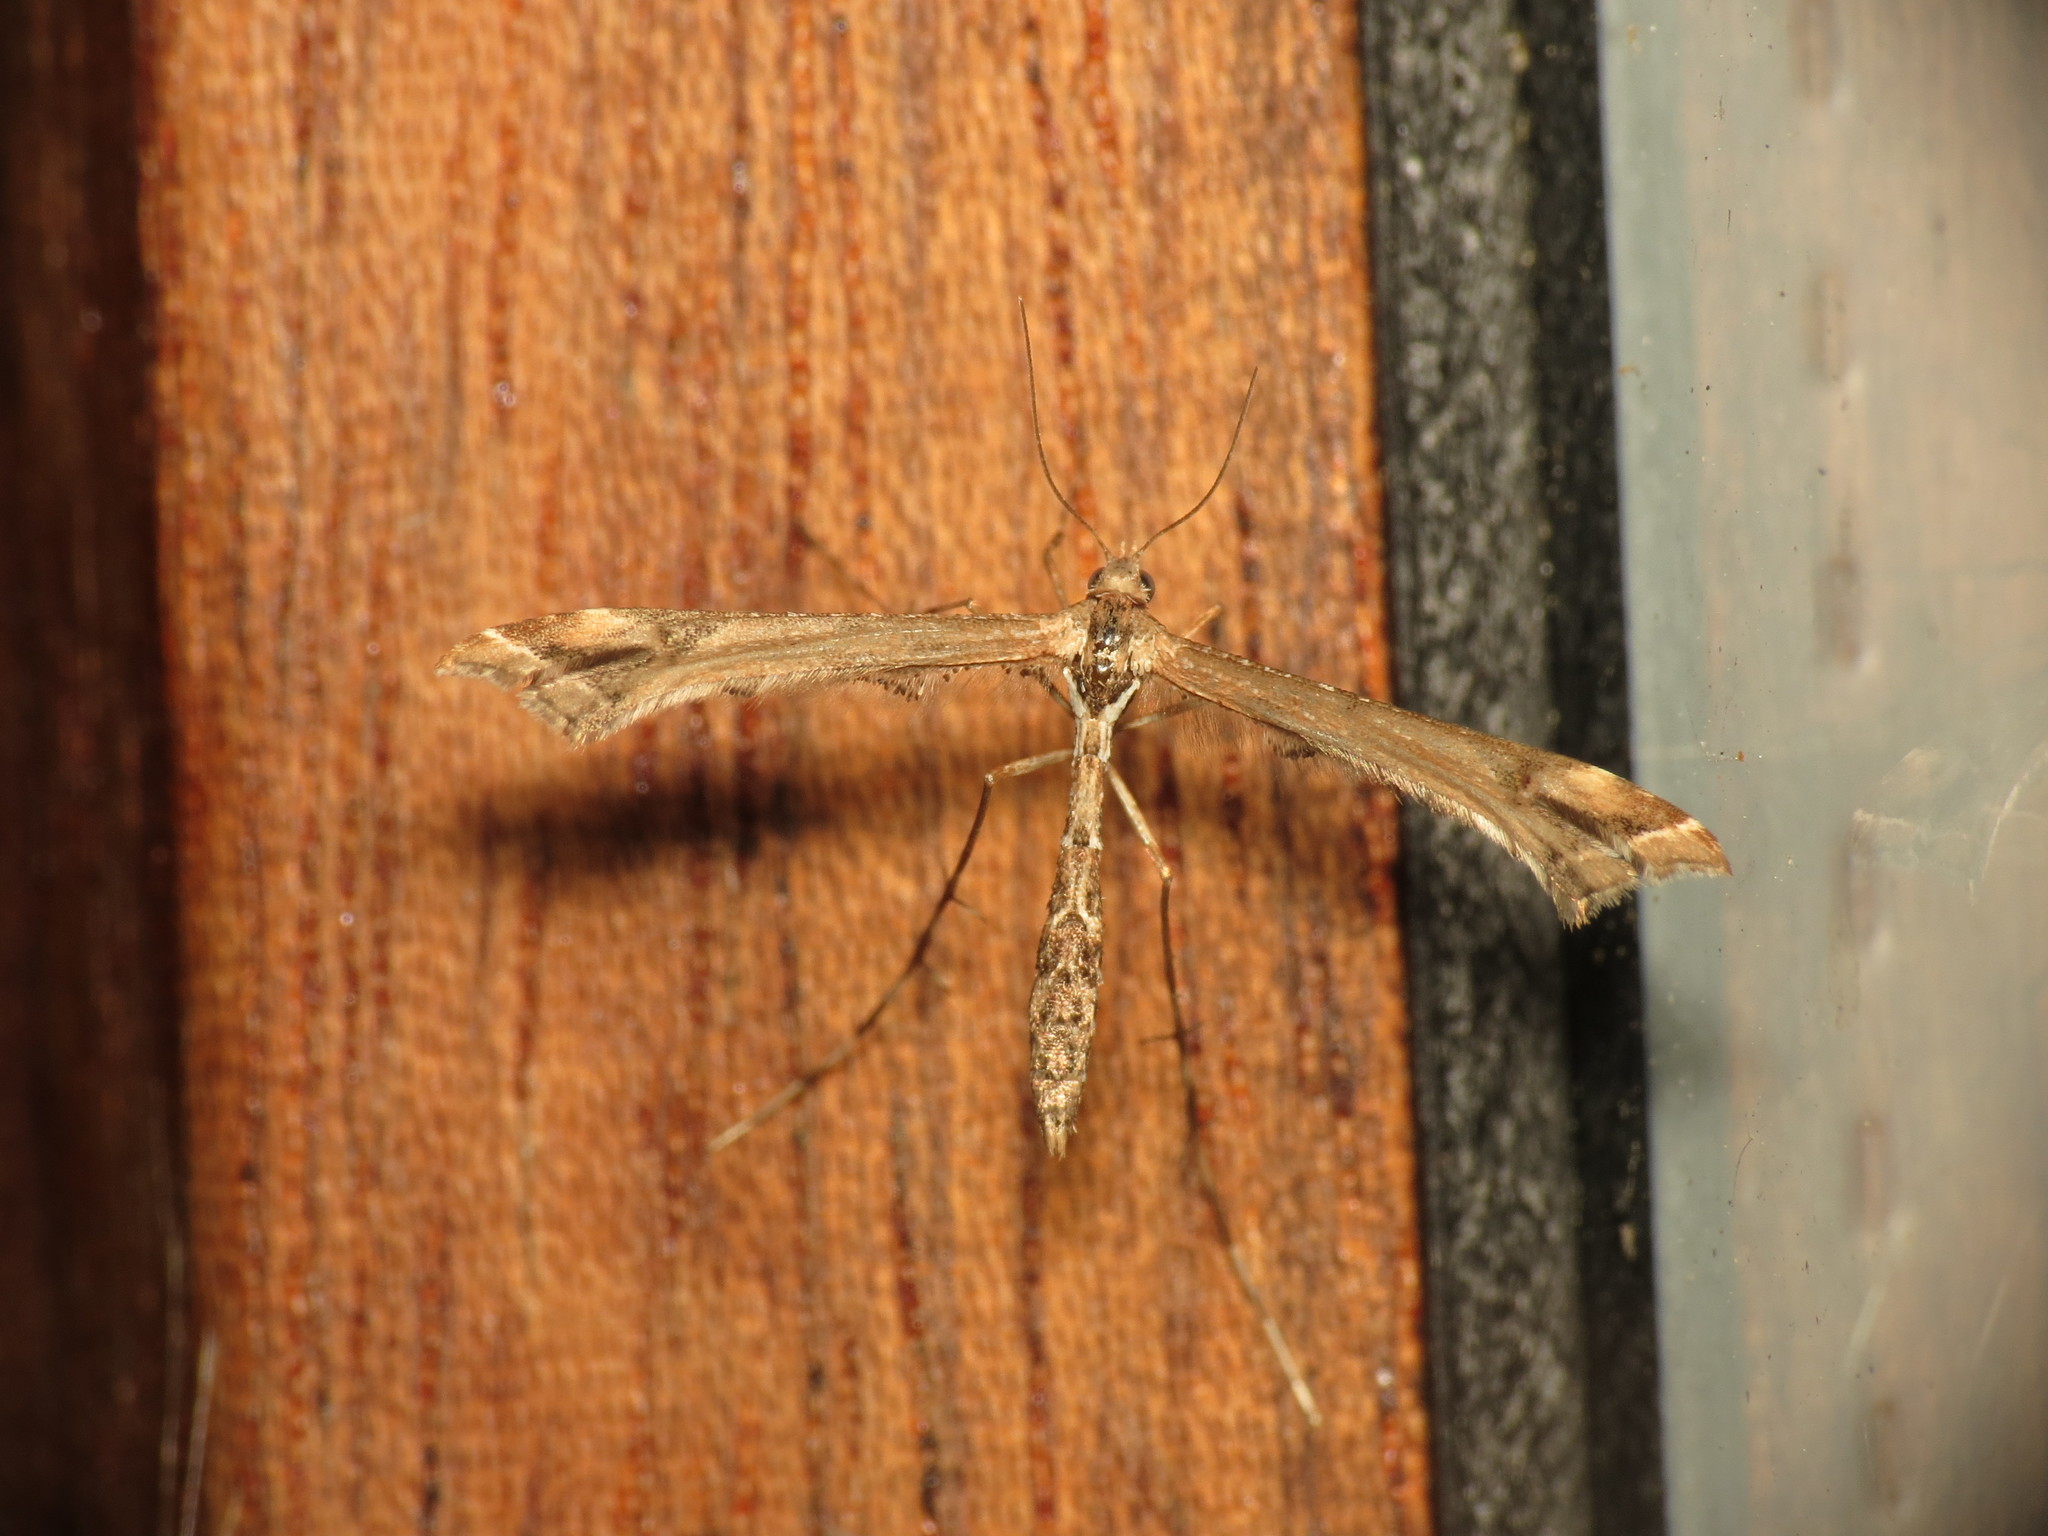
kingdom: Animalia
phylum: Arthropoda
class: Insecta
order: Lepidoptera
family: Pterophoridae
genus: Amblyptilia
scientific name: Amblyptilia acanthadactyla
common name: Beautiful plume
